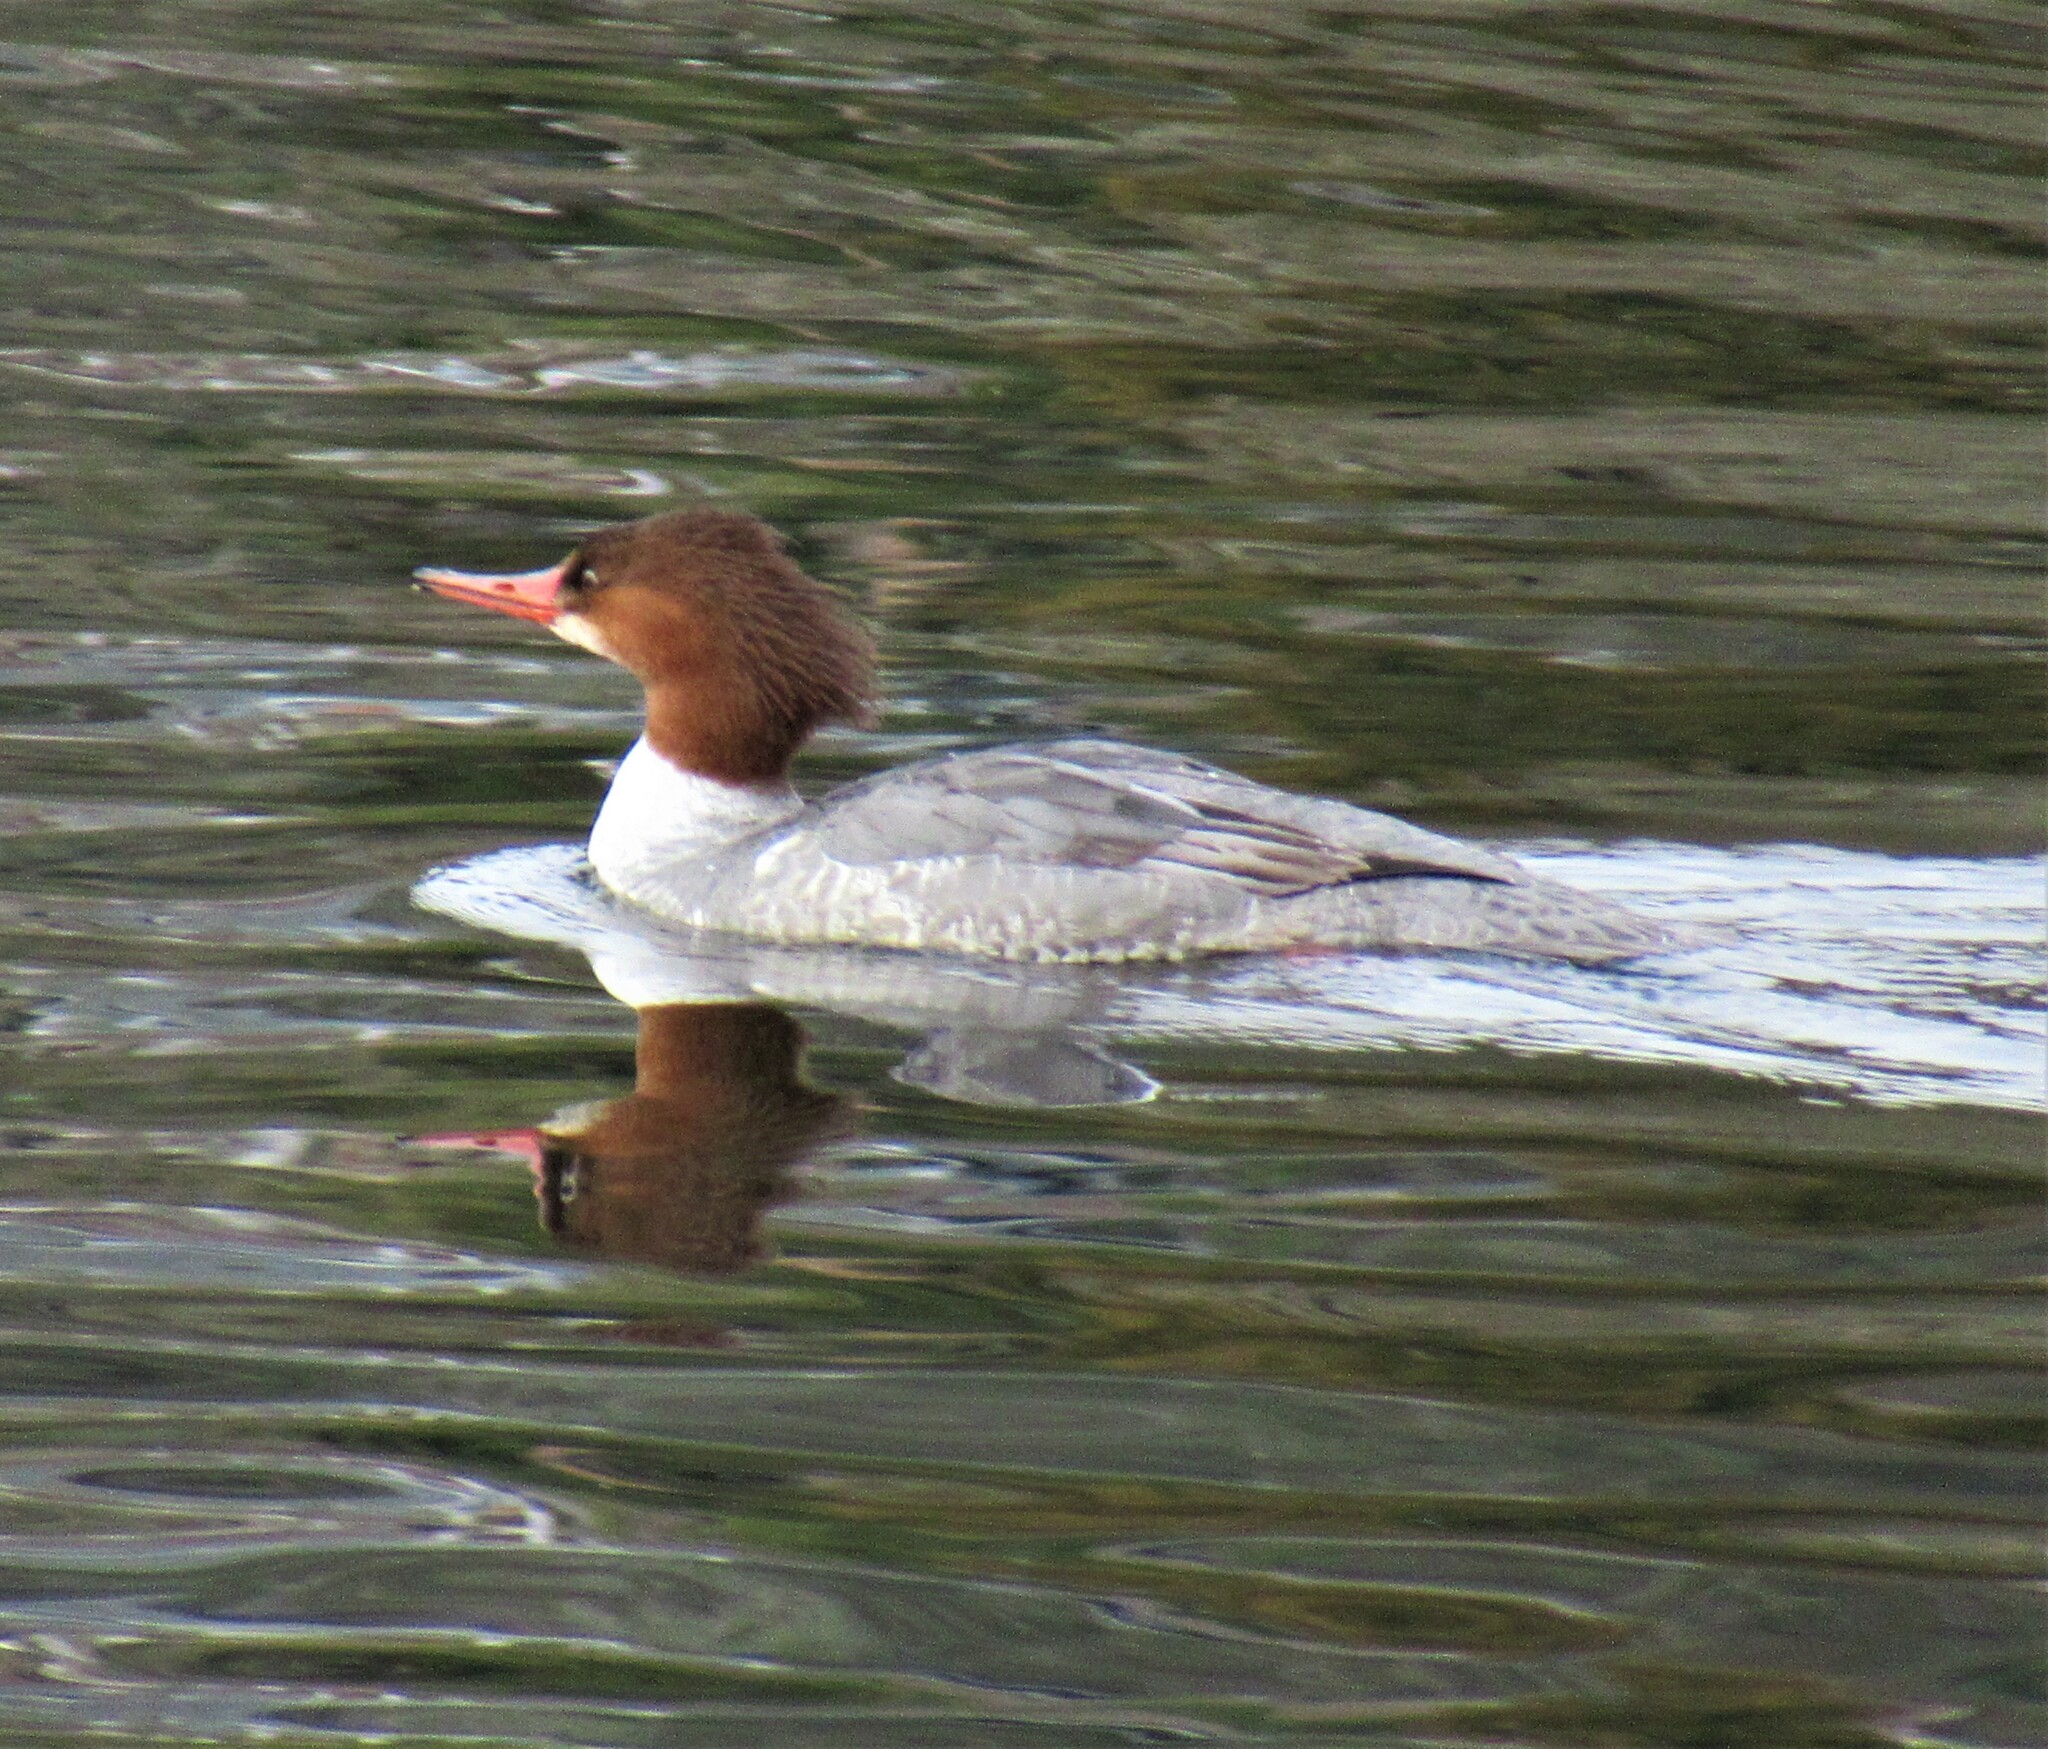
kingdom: Animalia
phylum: Chordata
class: Aves
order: Anseriformes
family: Anatidae
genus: Mergus
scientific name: Mergus merganser
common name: Common merganser
